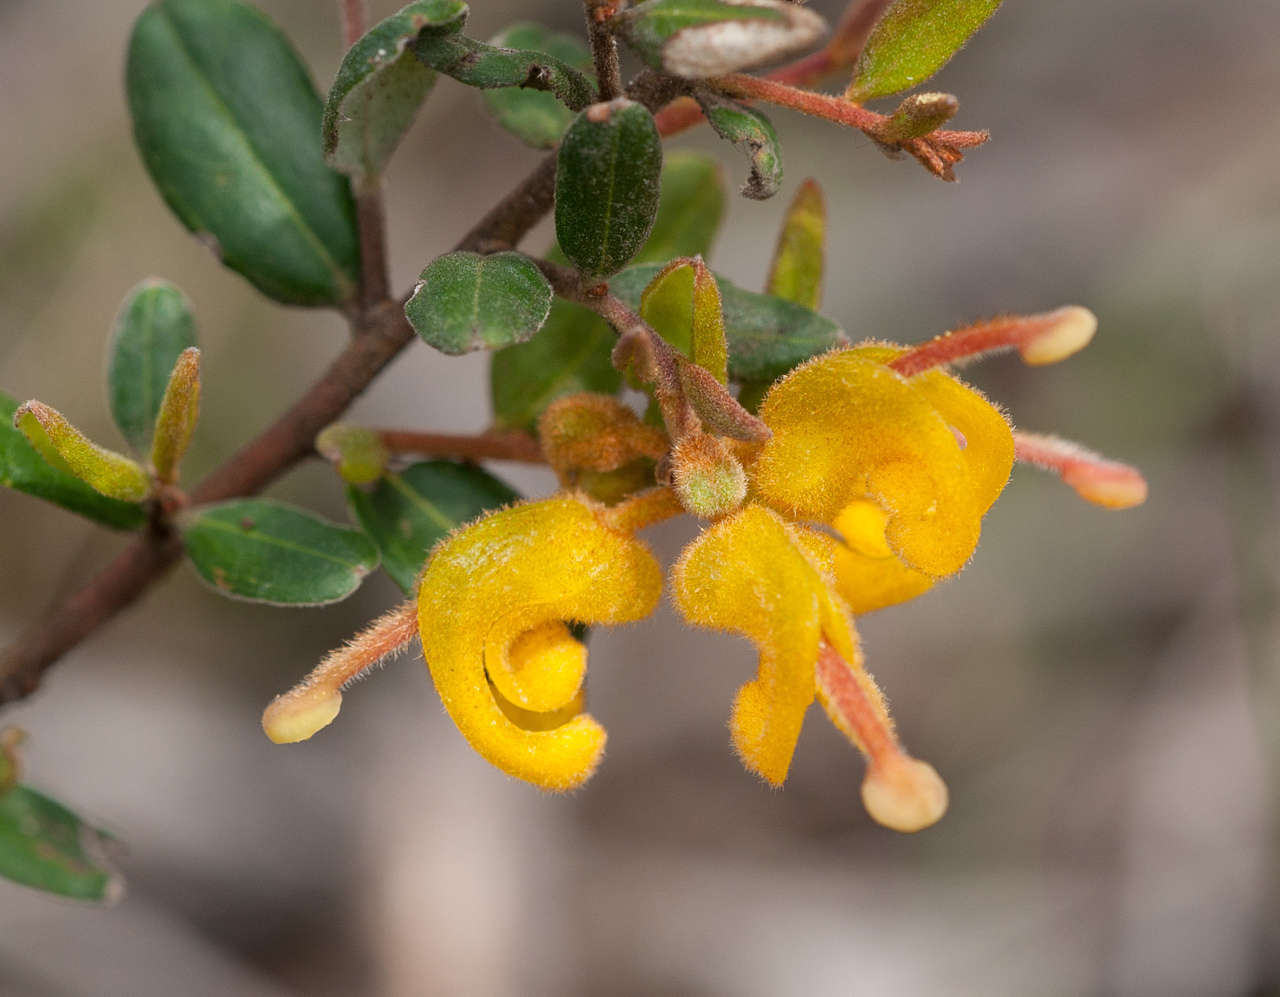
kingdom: Plantae
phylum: Tracheophyta
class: Magnoliopsida
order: Proteales
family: Proteaceae
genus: Grevillea
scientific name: Grevillea chrysophaea
